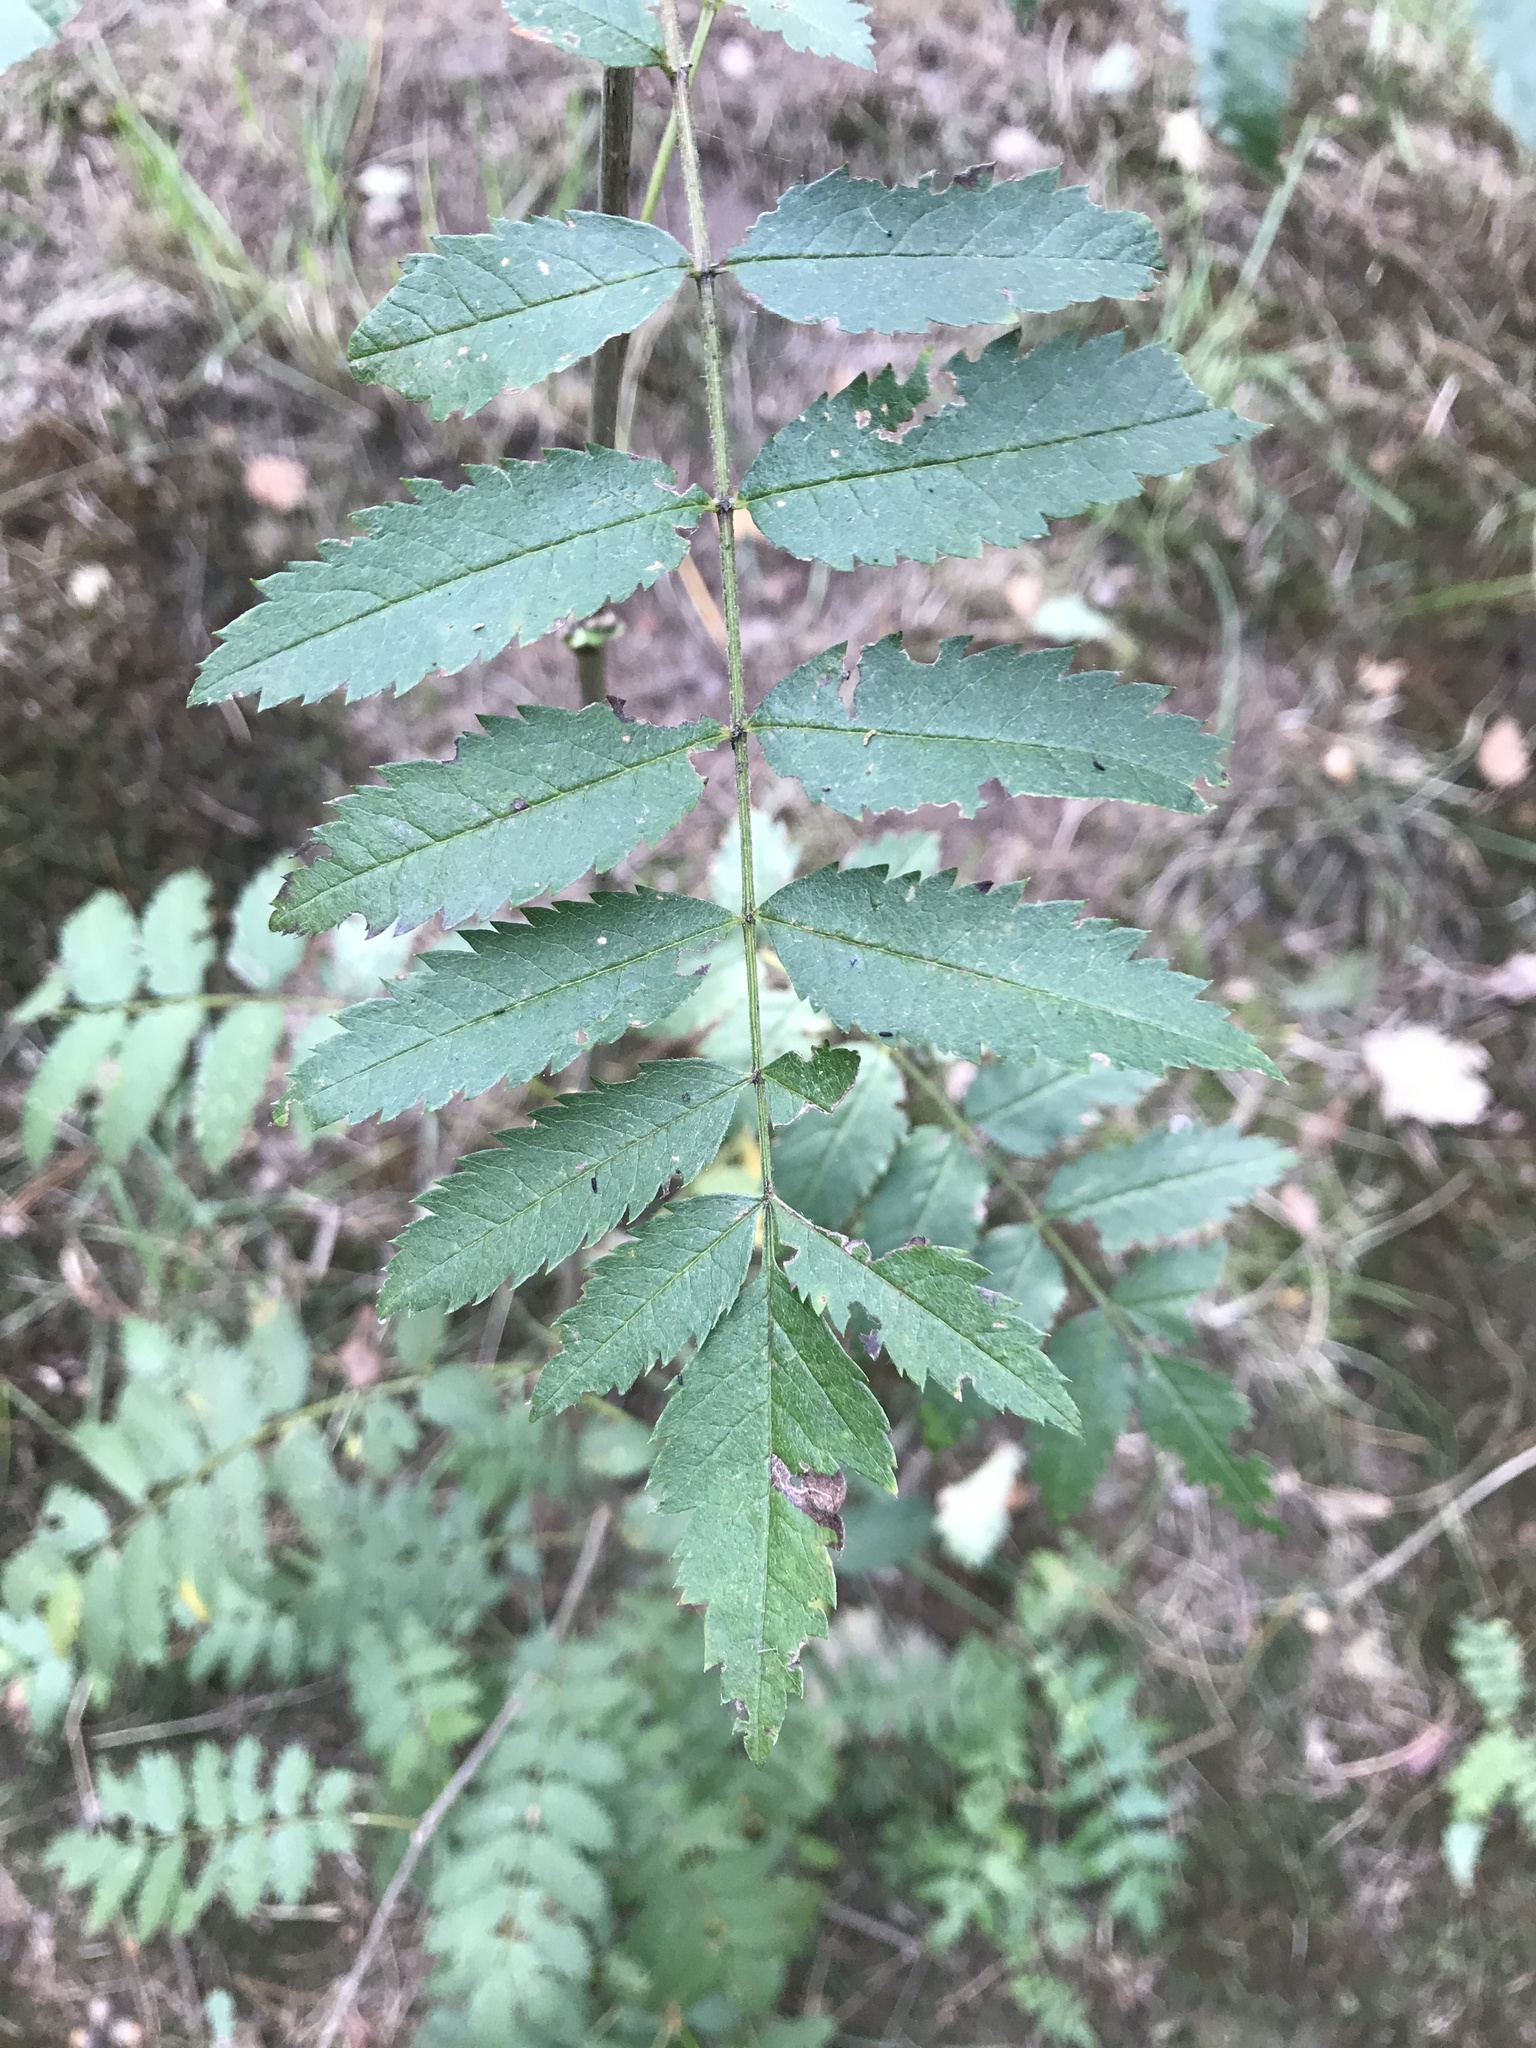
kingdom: Plantae
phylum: Tracheophyta
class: Magnoliopsida
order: Rosales
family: Rosaceae
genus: Sorbus
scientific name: Sorbus aucuparia
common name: Rowan
